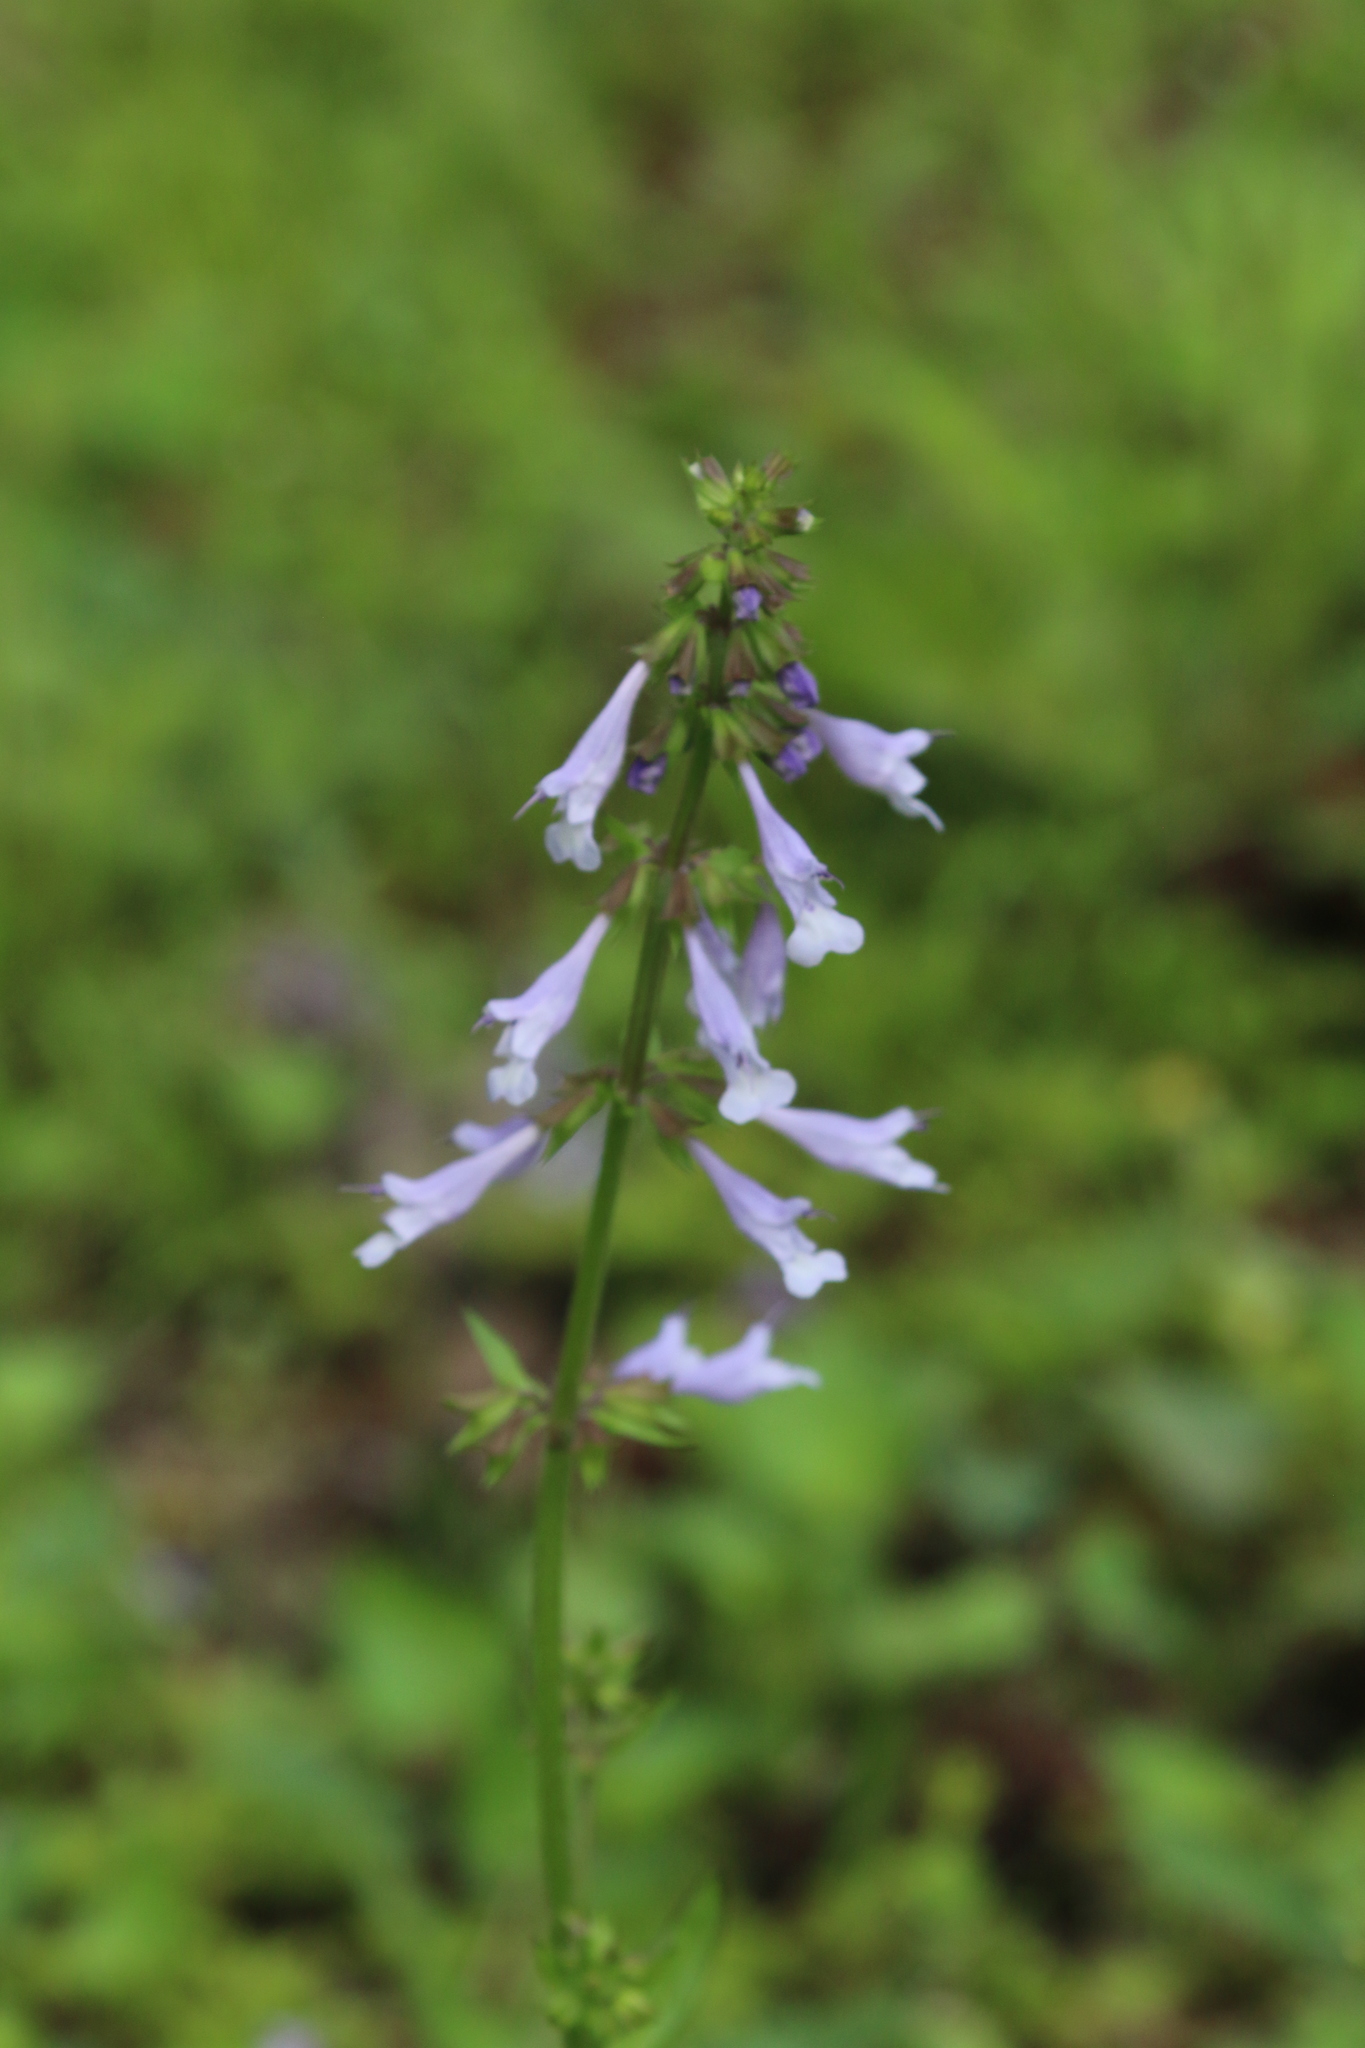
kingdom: Plantae
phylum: Tracheophyta
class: Magnoliopsida
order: Lamiales
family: Lamiaceae
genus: Salvia
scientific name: Salvia lyrata
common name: Cancerweed
